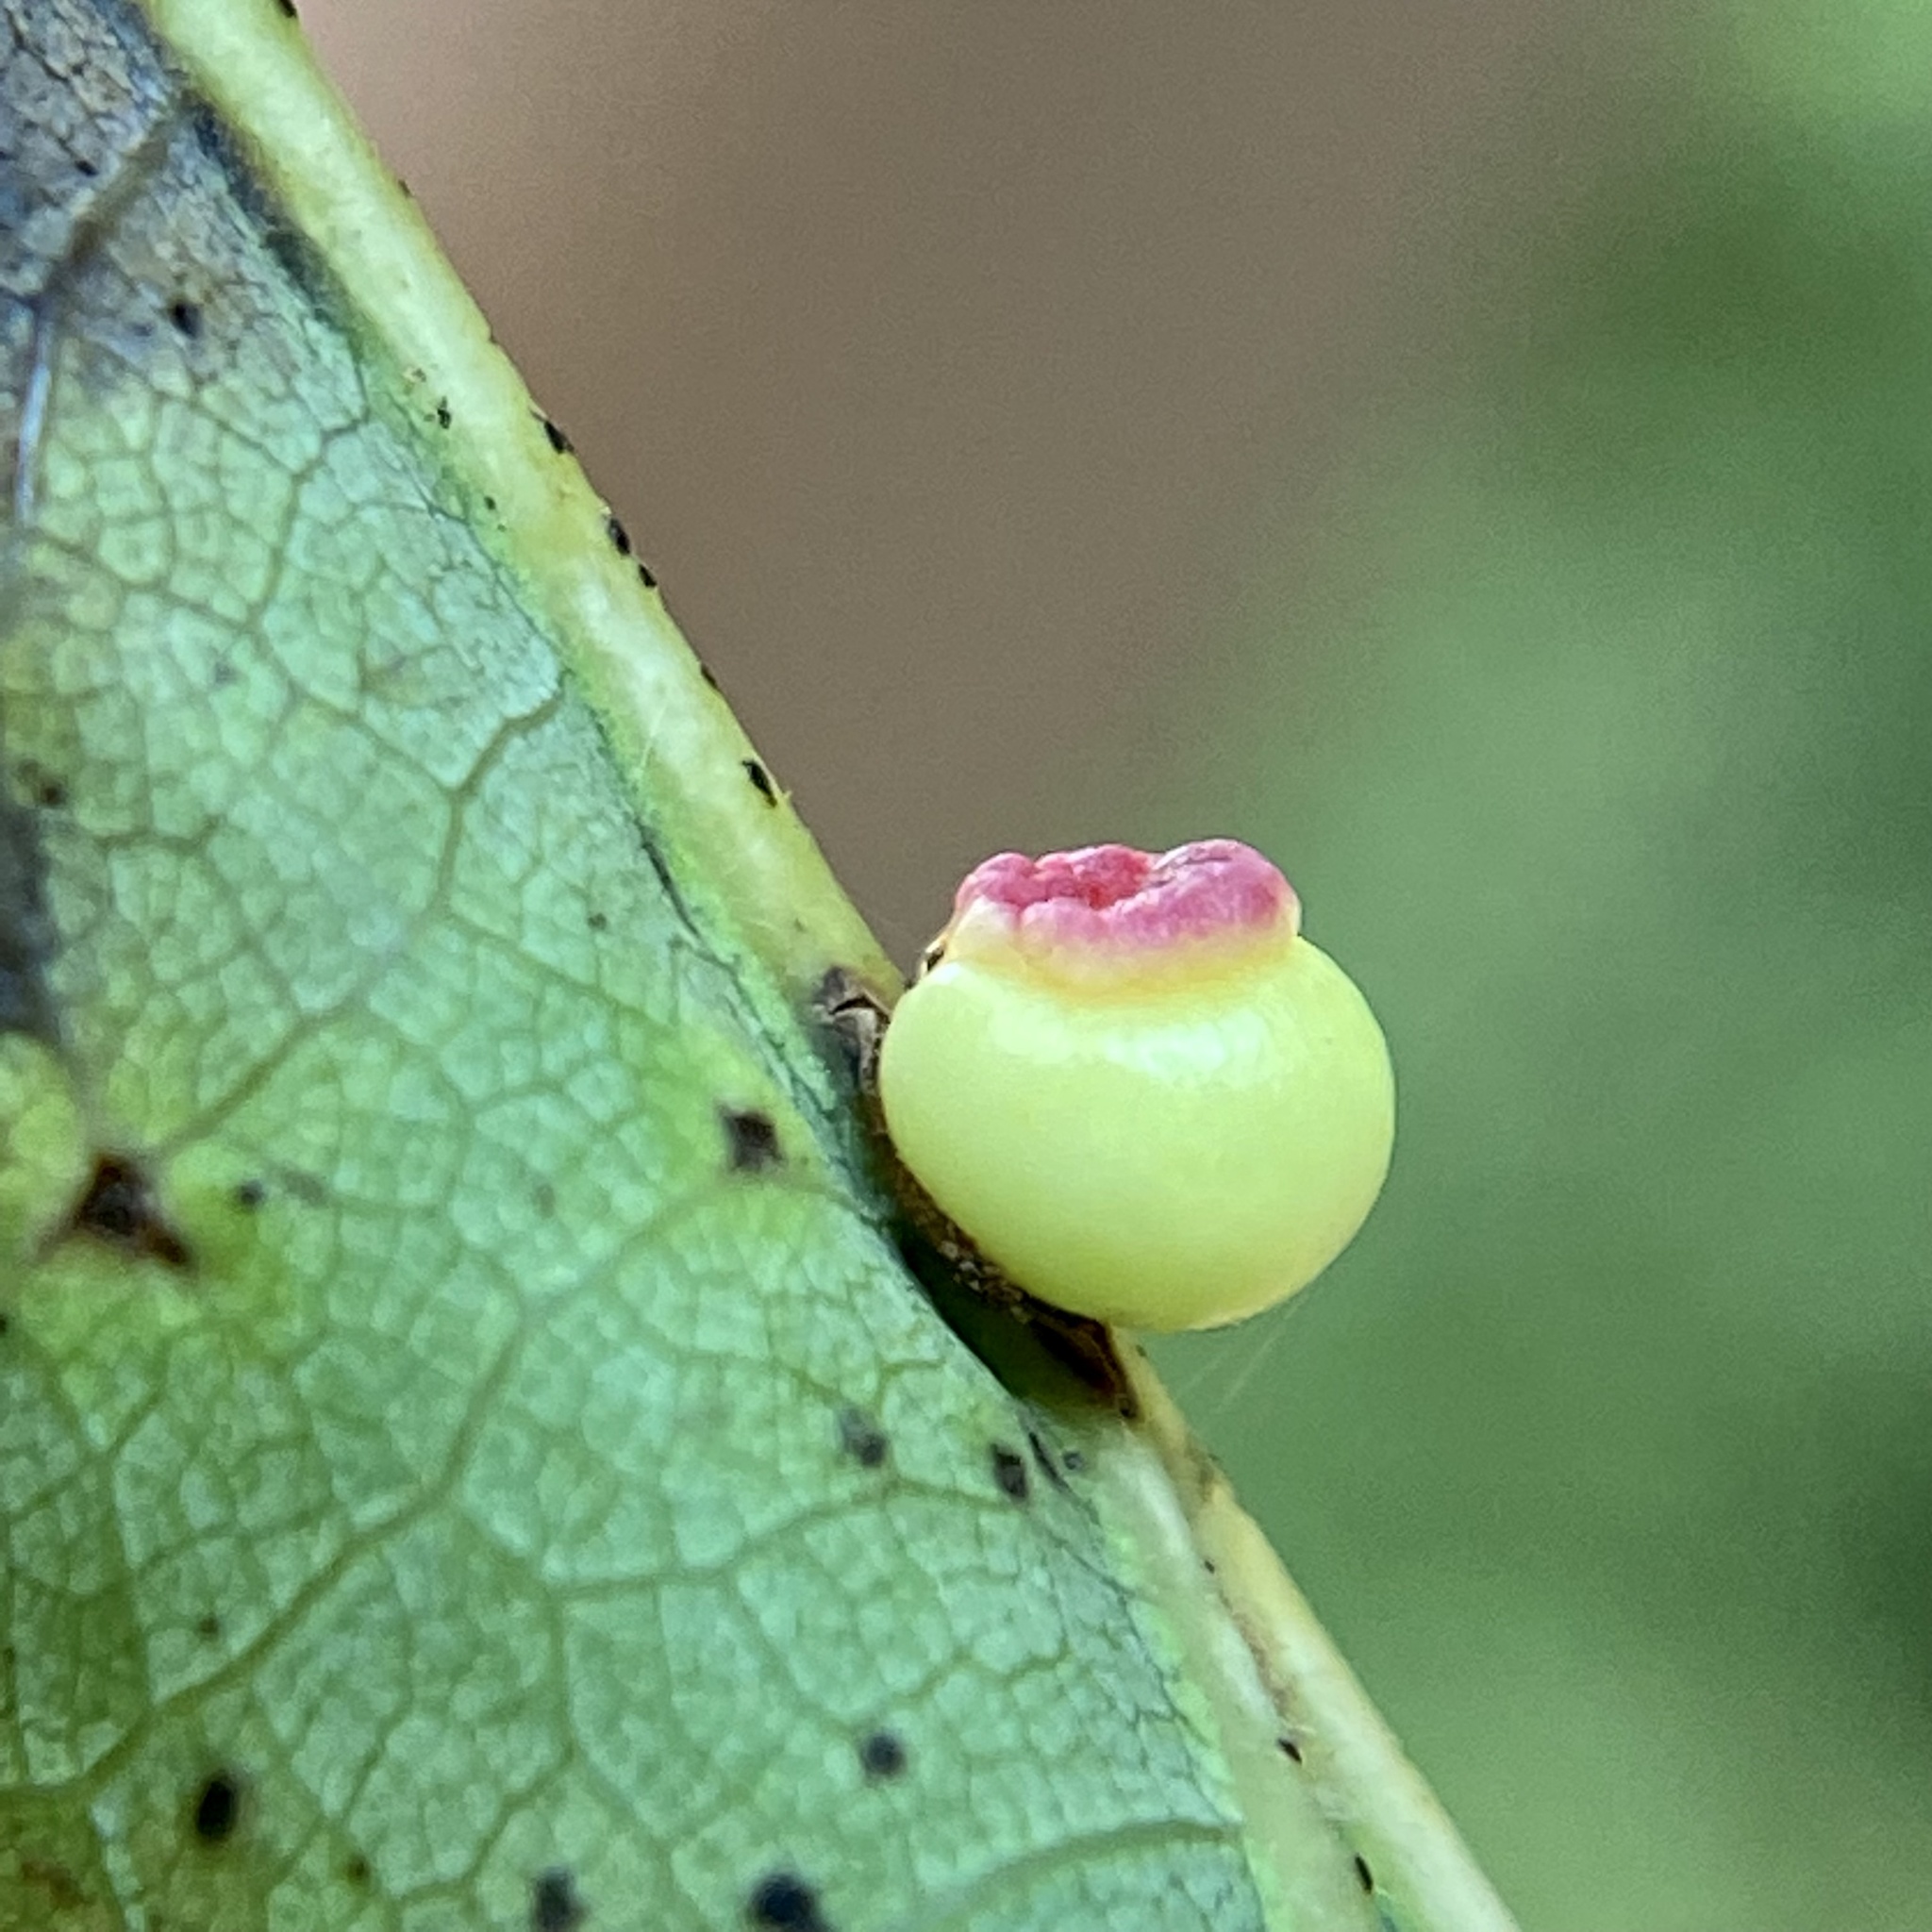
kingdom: Animalia
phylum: Arthropoda
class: Insecta
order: Hymenoptera
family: Cynipidae
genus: Kokkocynips
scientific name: Kokkocynips rileyi
